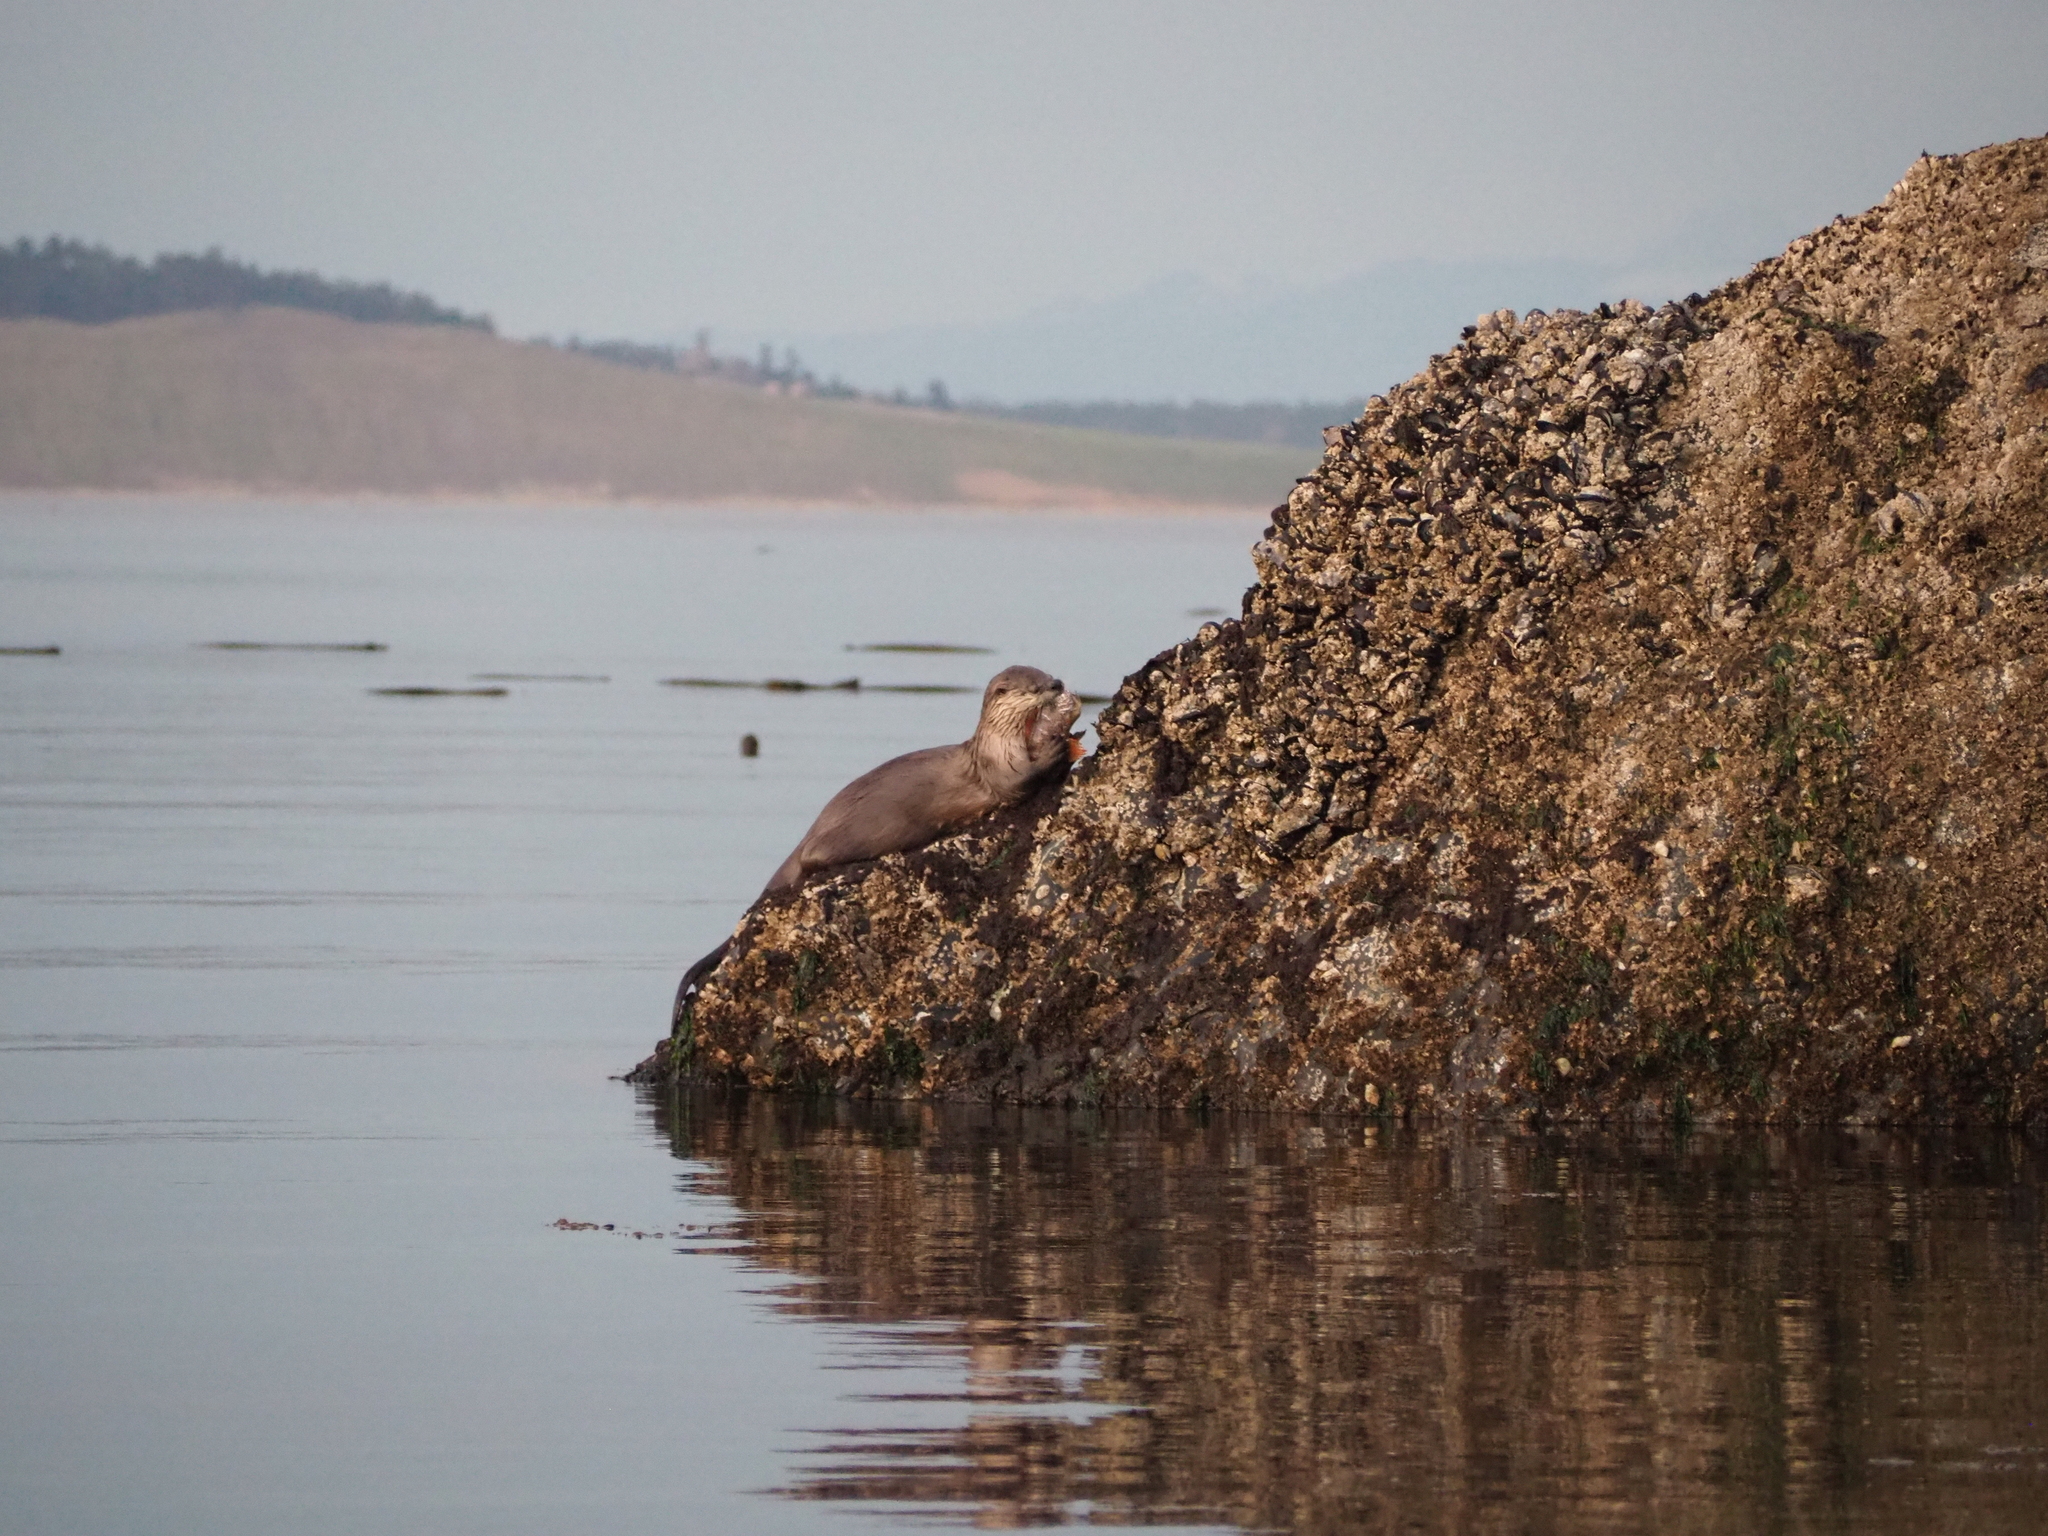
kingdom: Animalia
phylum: Chordata
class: Mammalia
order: Carnivora
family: Mustelidae
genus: Lontra
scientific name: Lontra canadensis
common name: North american river otter
